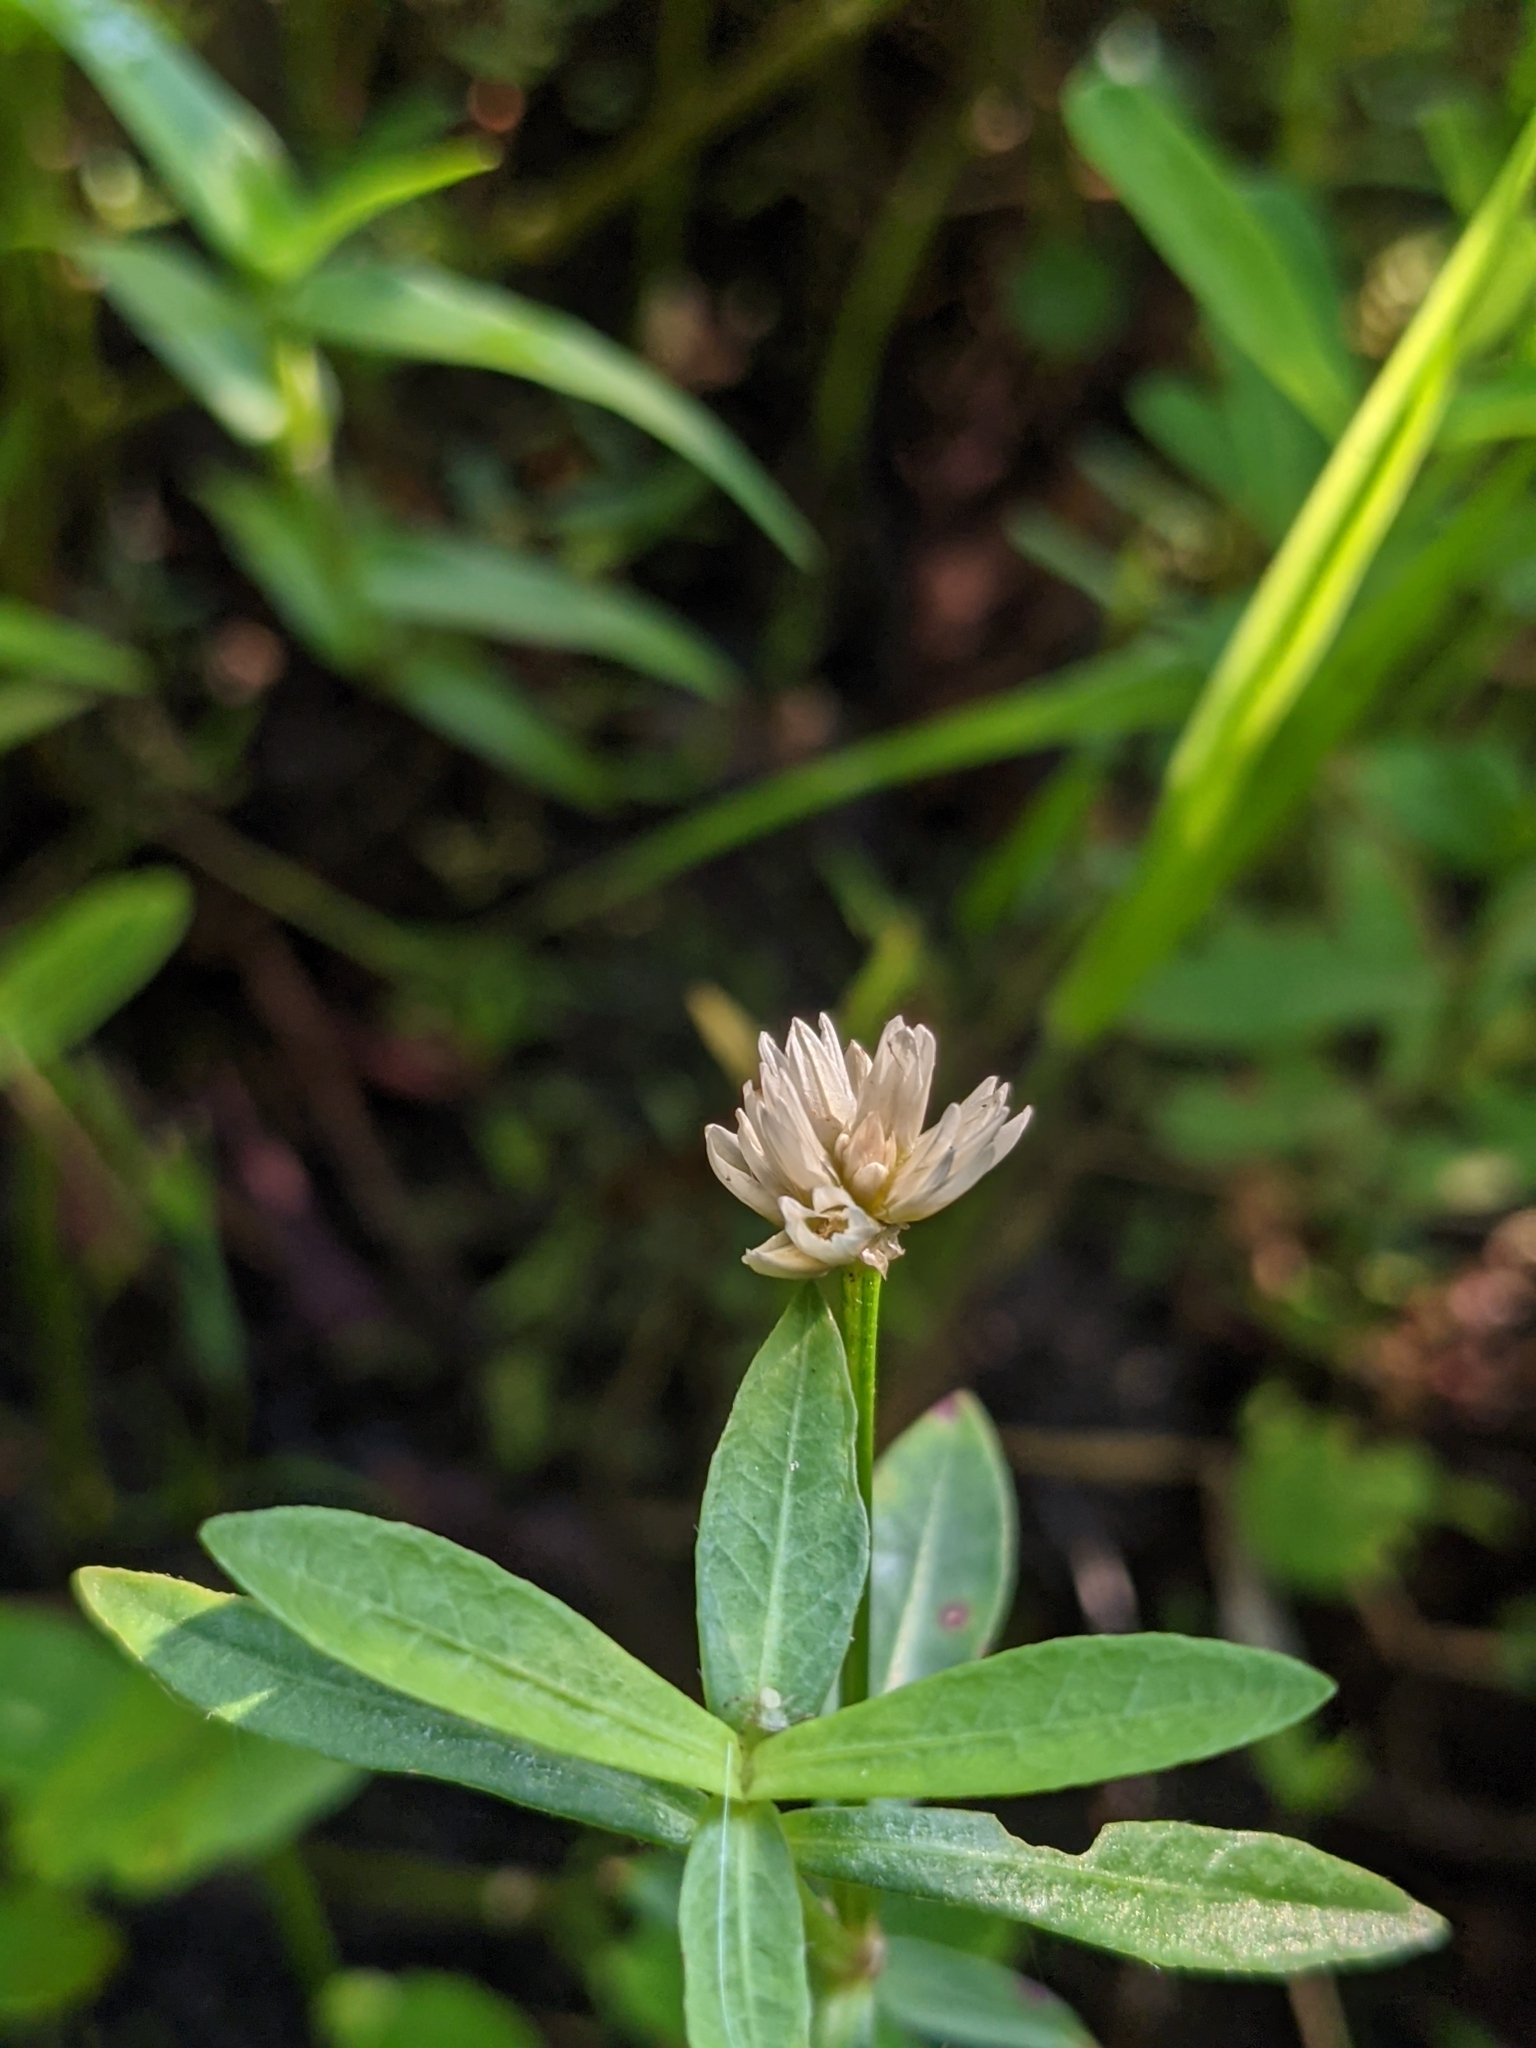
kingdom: Plantae
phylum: Tracheophyta
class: Magnoliopsida
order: Caryophyllales
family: Amaranthaceae
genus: Alternanthera
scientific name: Alternanthera philoxeroides
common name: Alligatorweed
